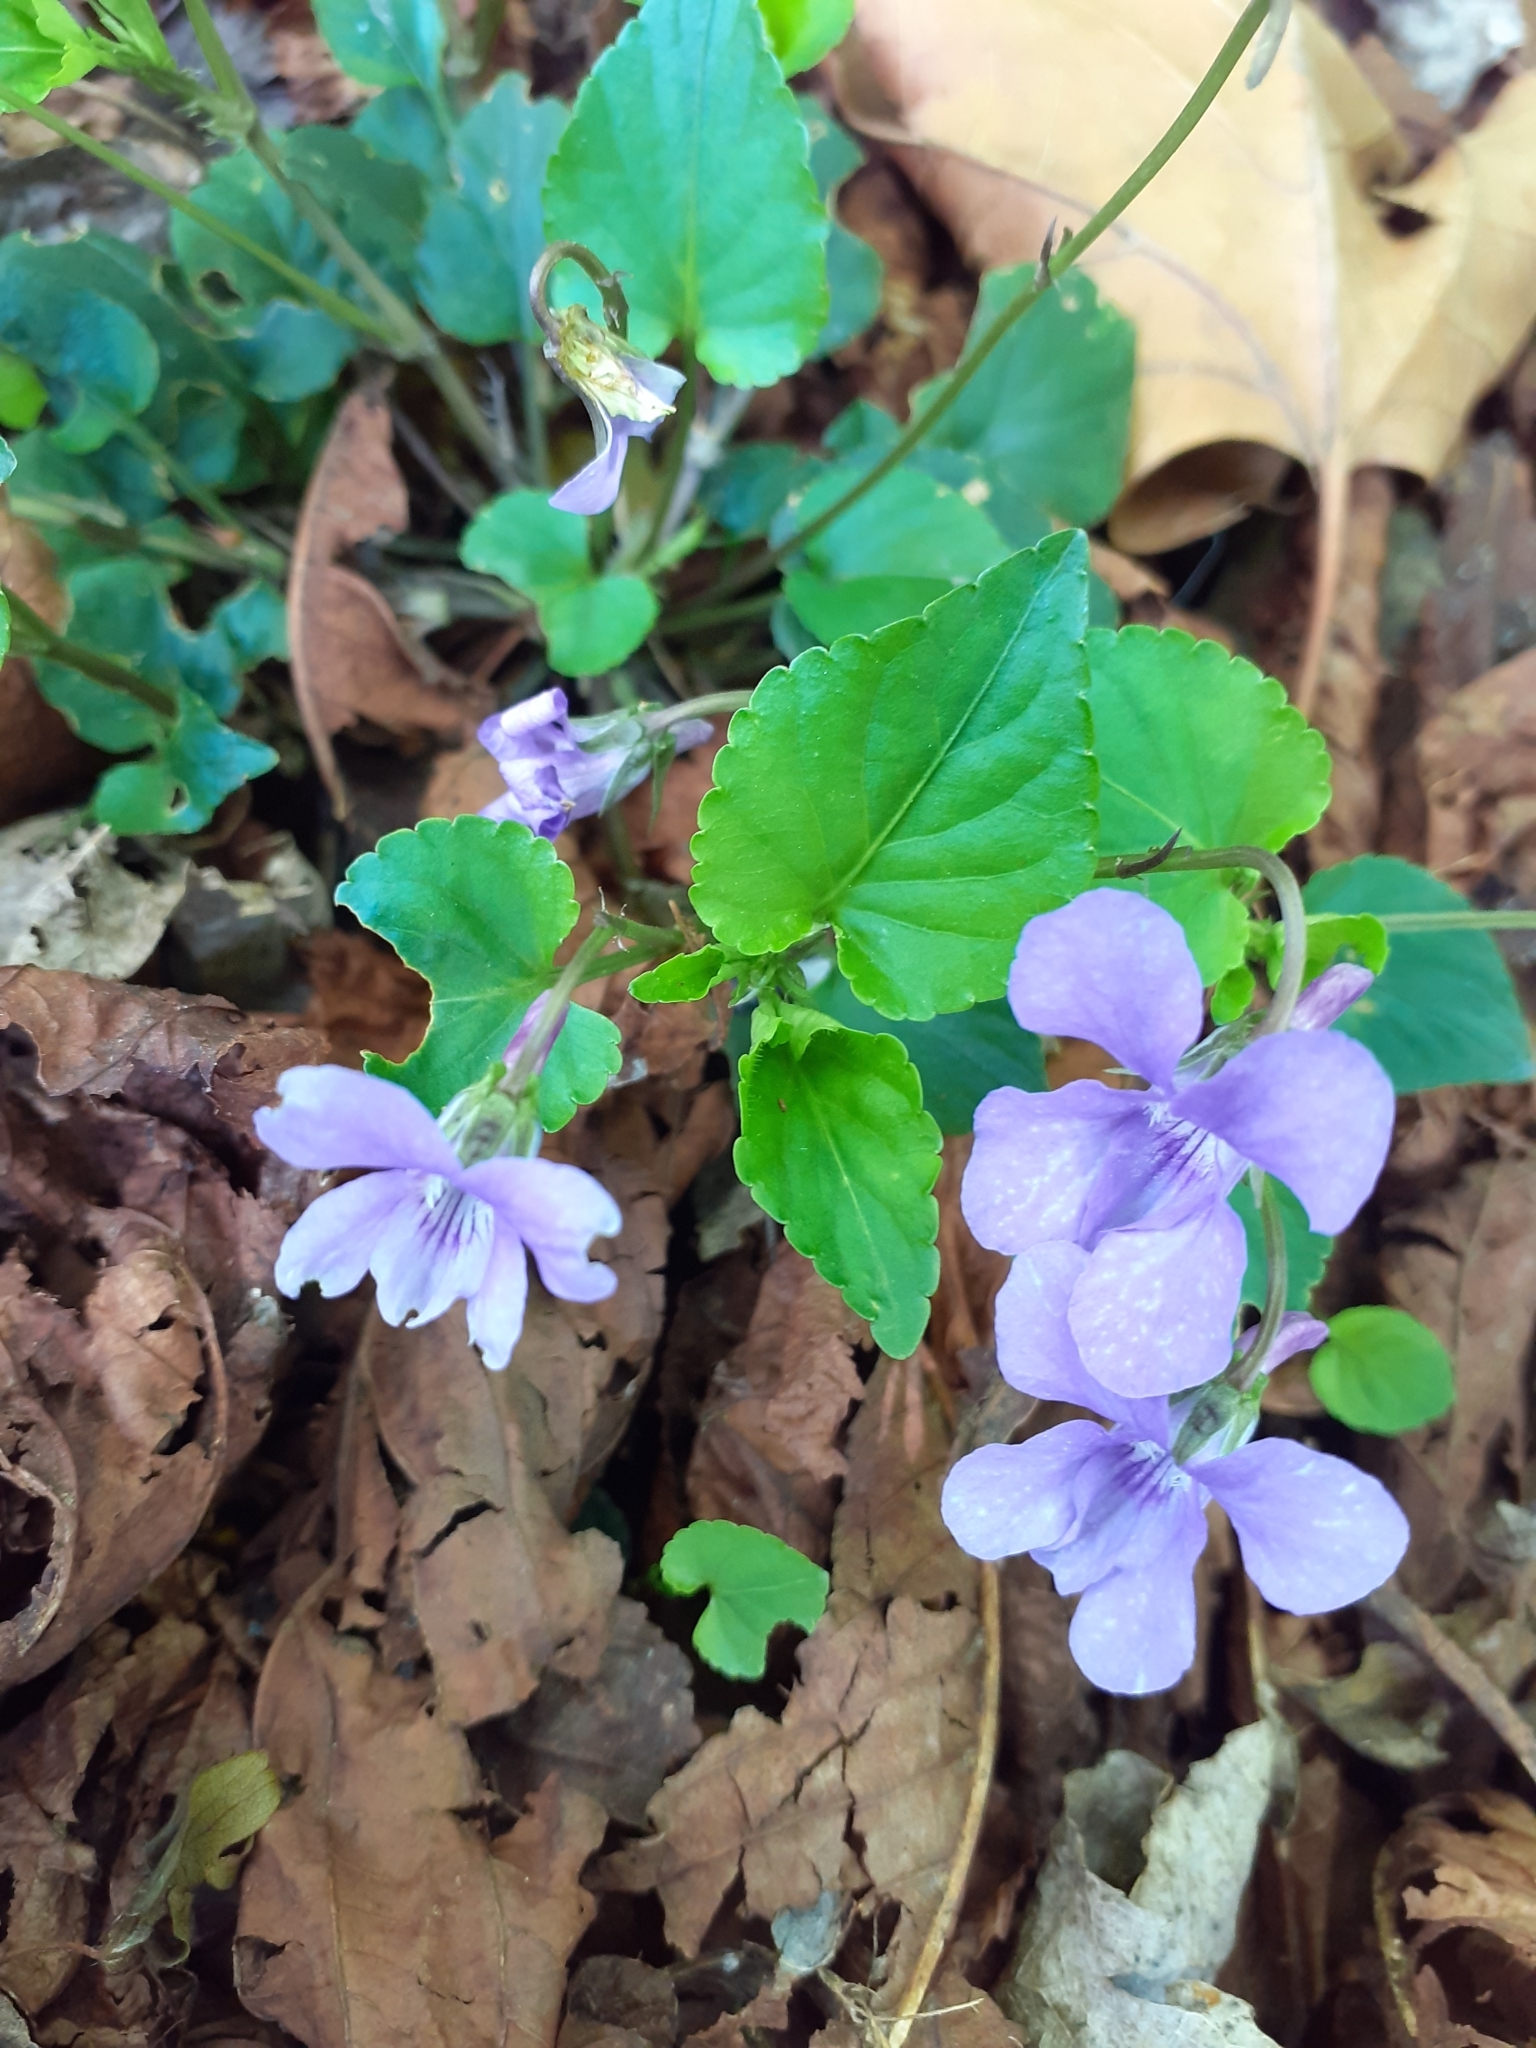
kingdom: Plantae
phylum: Tracheophyta
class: Magnoliopsida
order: Malpighiales
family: Violaceae
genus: Viola
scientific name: Viola reichenbachiana
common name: Early dog-violet
